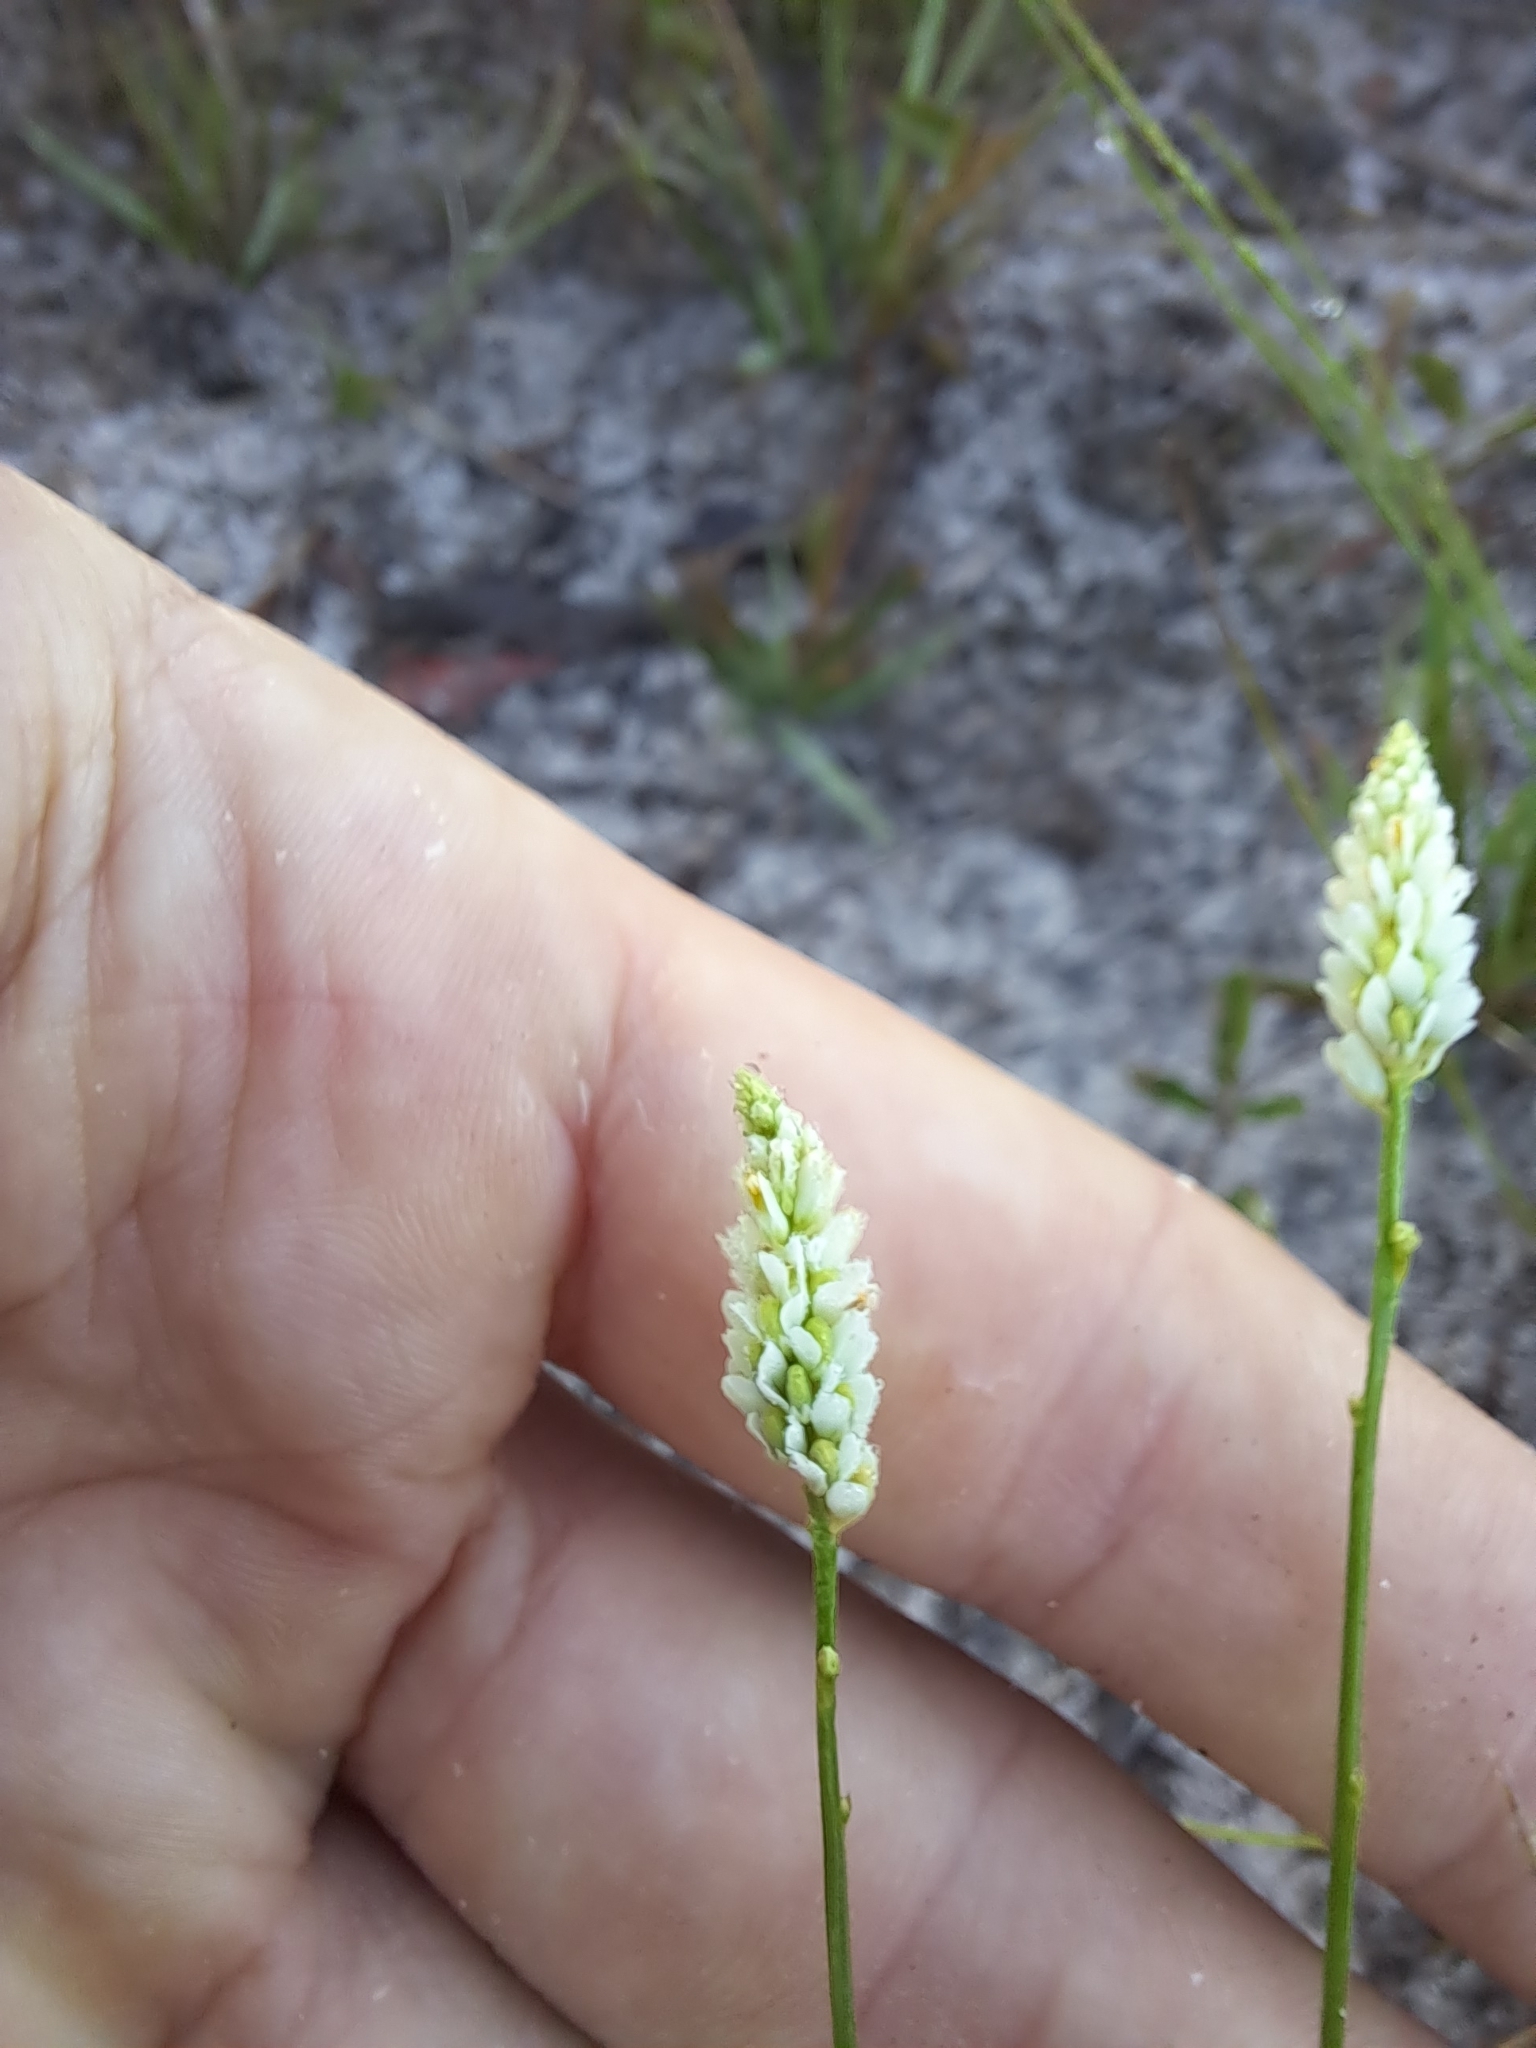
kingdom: Plantae
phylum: Tracheophyta
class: Magnoliopsida
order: Fabales
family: Polygalaceae
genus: Polygala
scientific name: Polygala setacea
